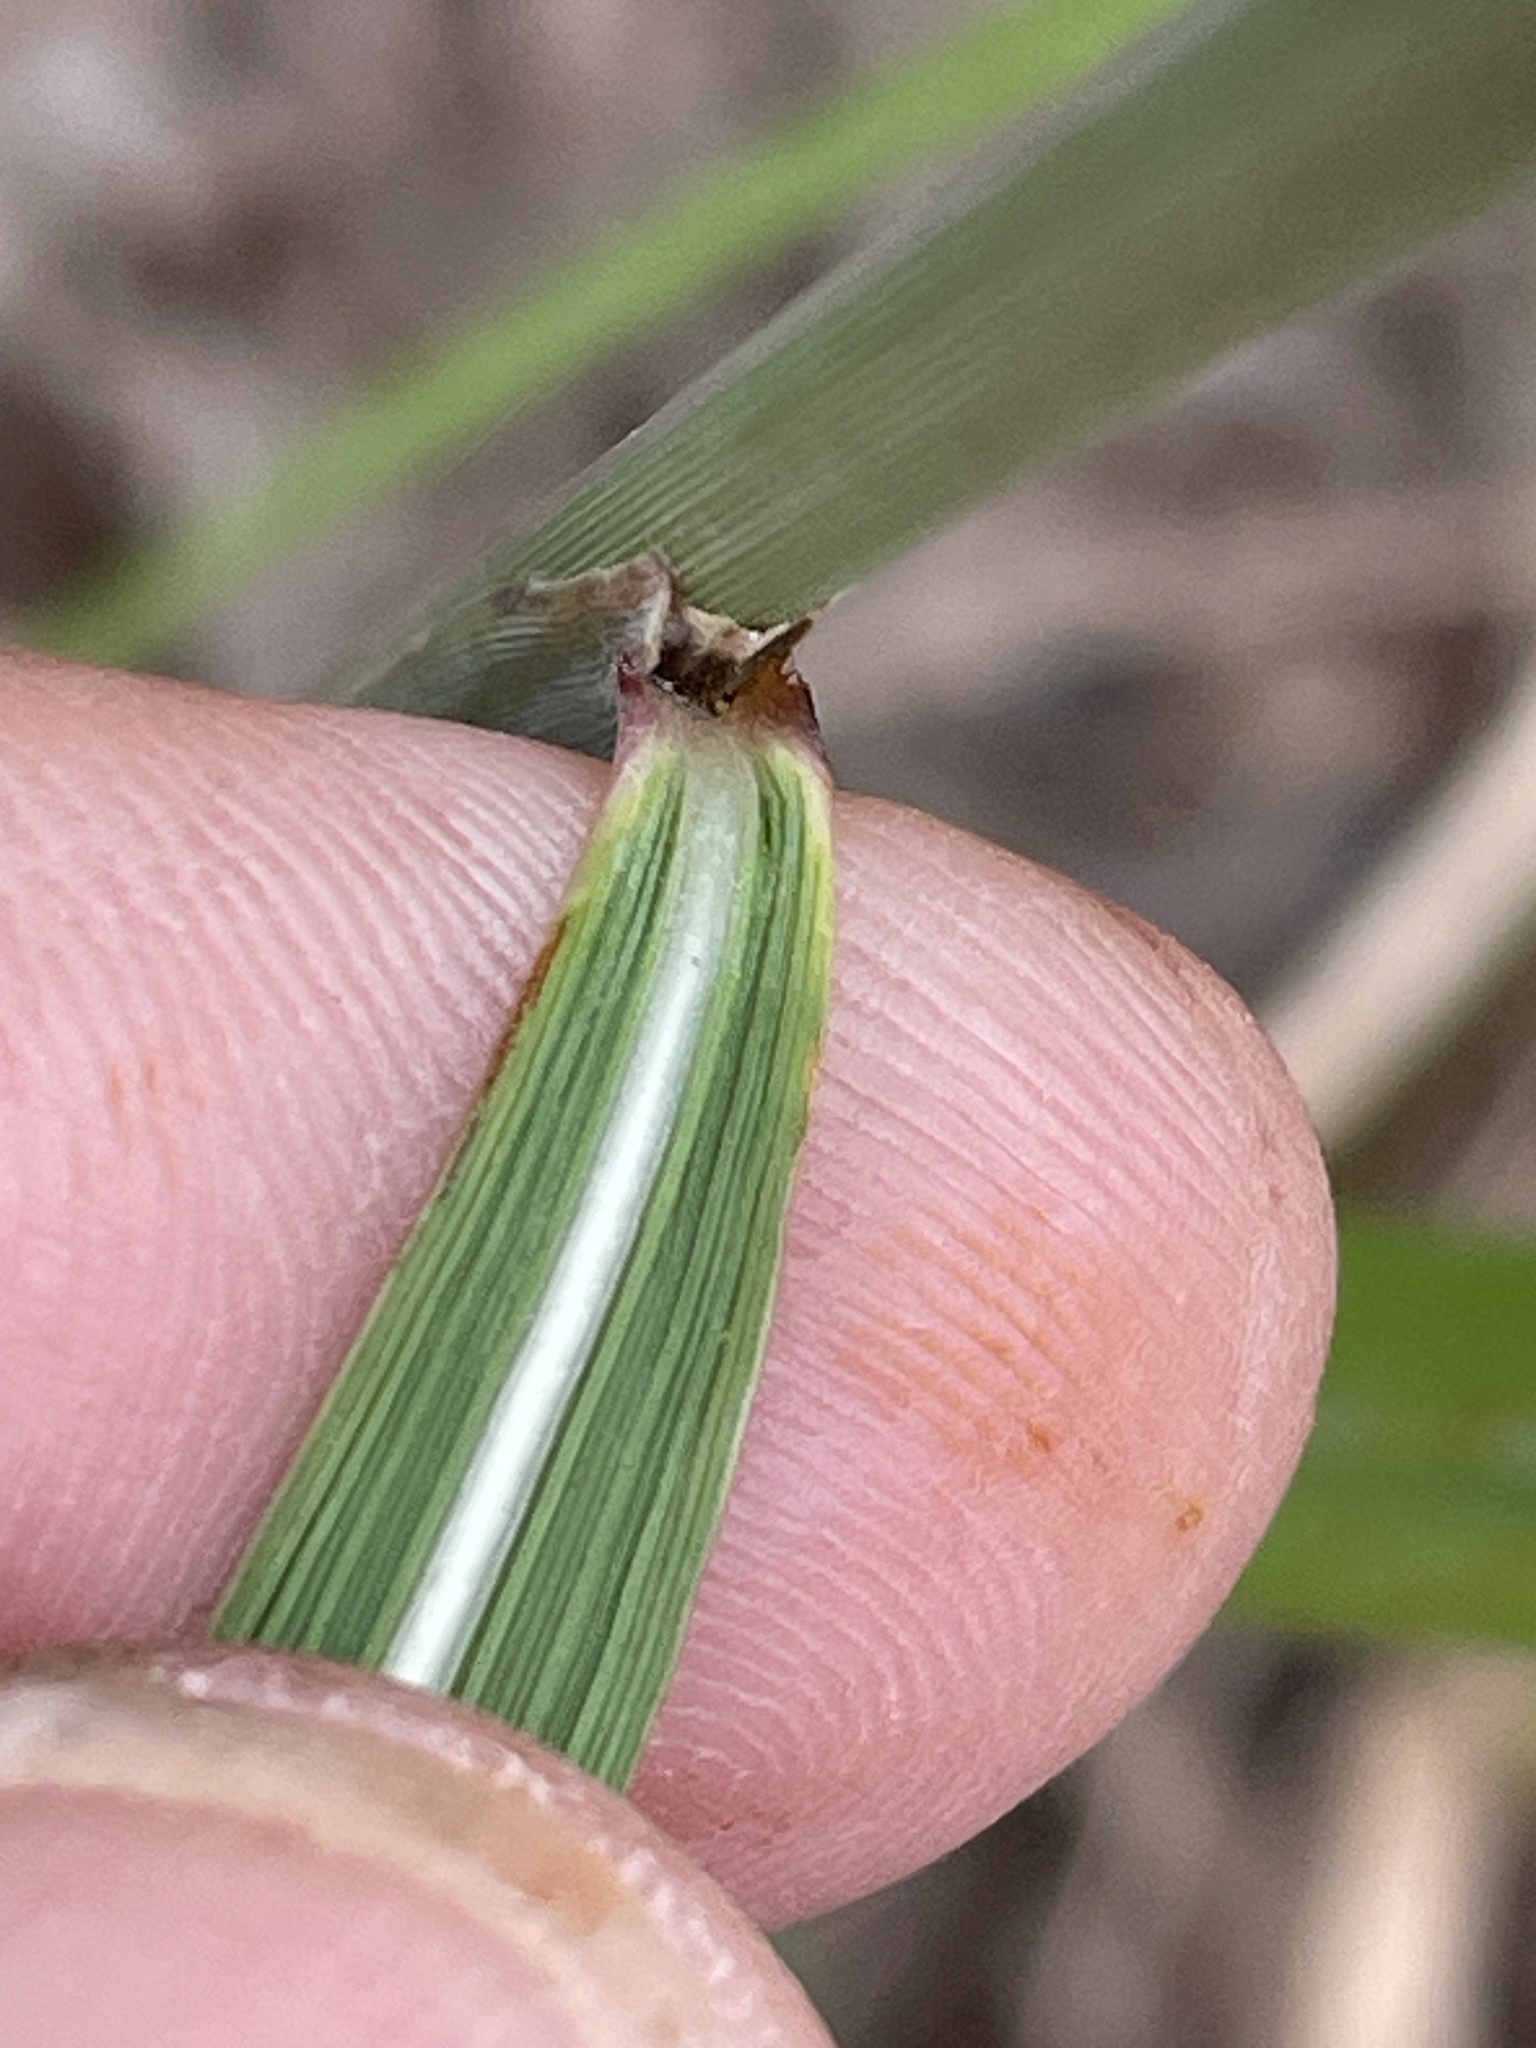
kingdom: Plantae
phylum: Tracheophyta
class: Liliopsida
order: Poales
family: Poaceae
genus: Sorghastrum
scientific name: Sorghastrum nutans
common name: Indian grass
